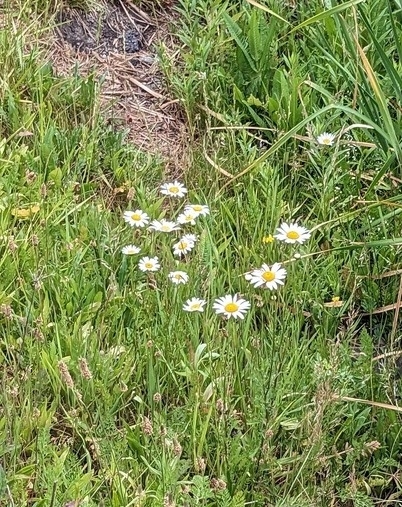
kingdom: Plantae
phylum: Tracheophyta
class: Magnoliopsida
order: Asterales
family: Asteraceae
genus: Leucanthemum
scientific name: Leucanthemum vulgare
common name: Oxeye daisy
